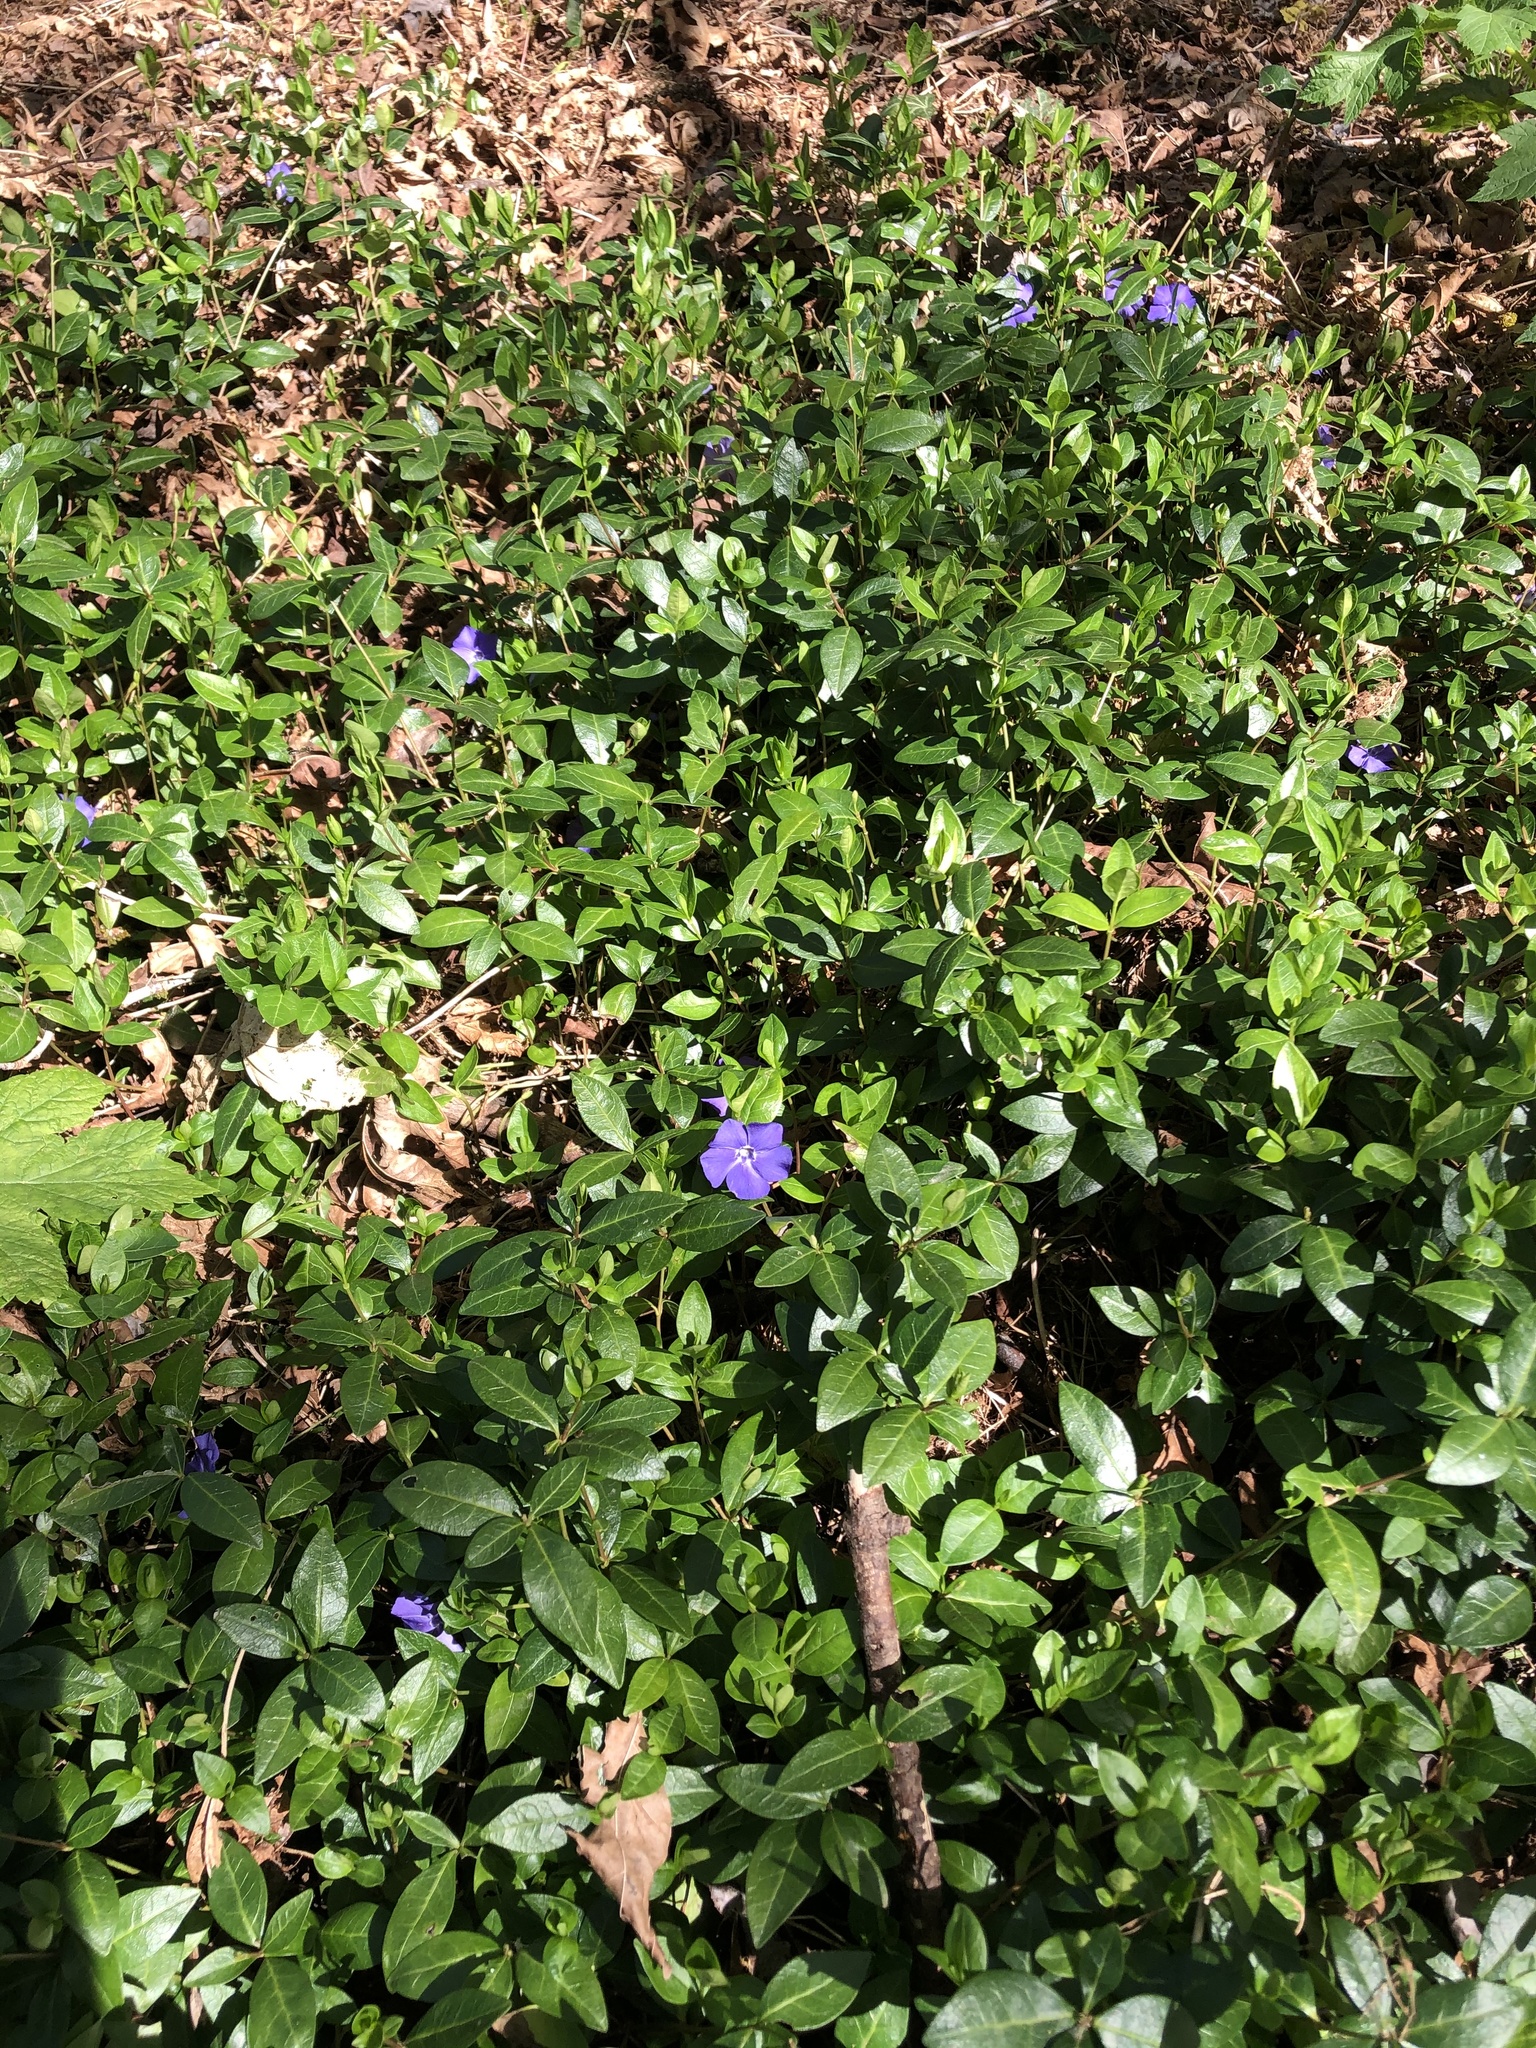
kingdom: Plantae
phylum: Tracheophyta
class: Magnoliopsida
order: Gentianales
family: Apocynaceae
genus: Vinca
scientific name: Vinca minor
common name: Lesser periwinkle
